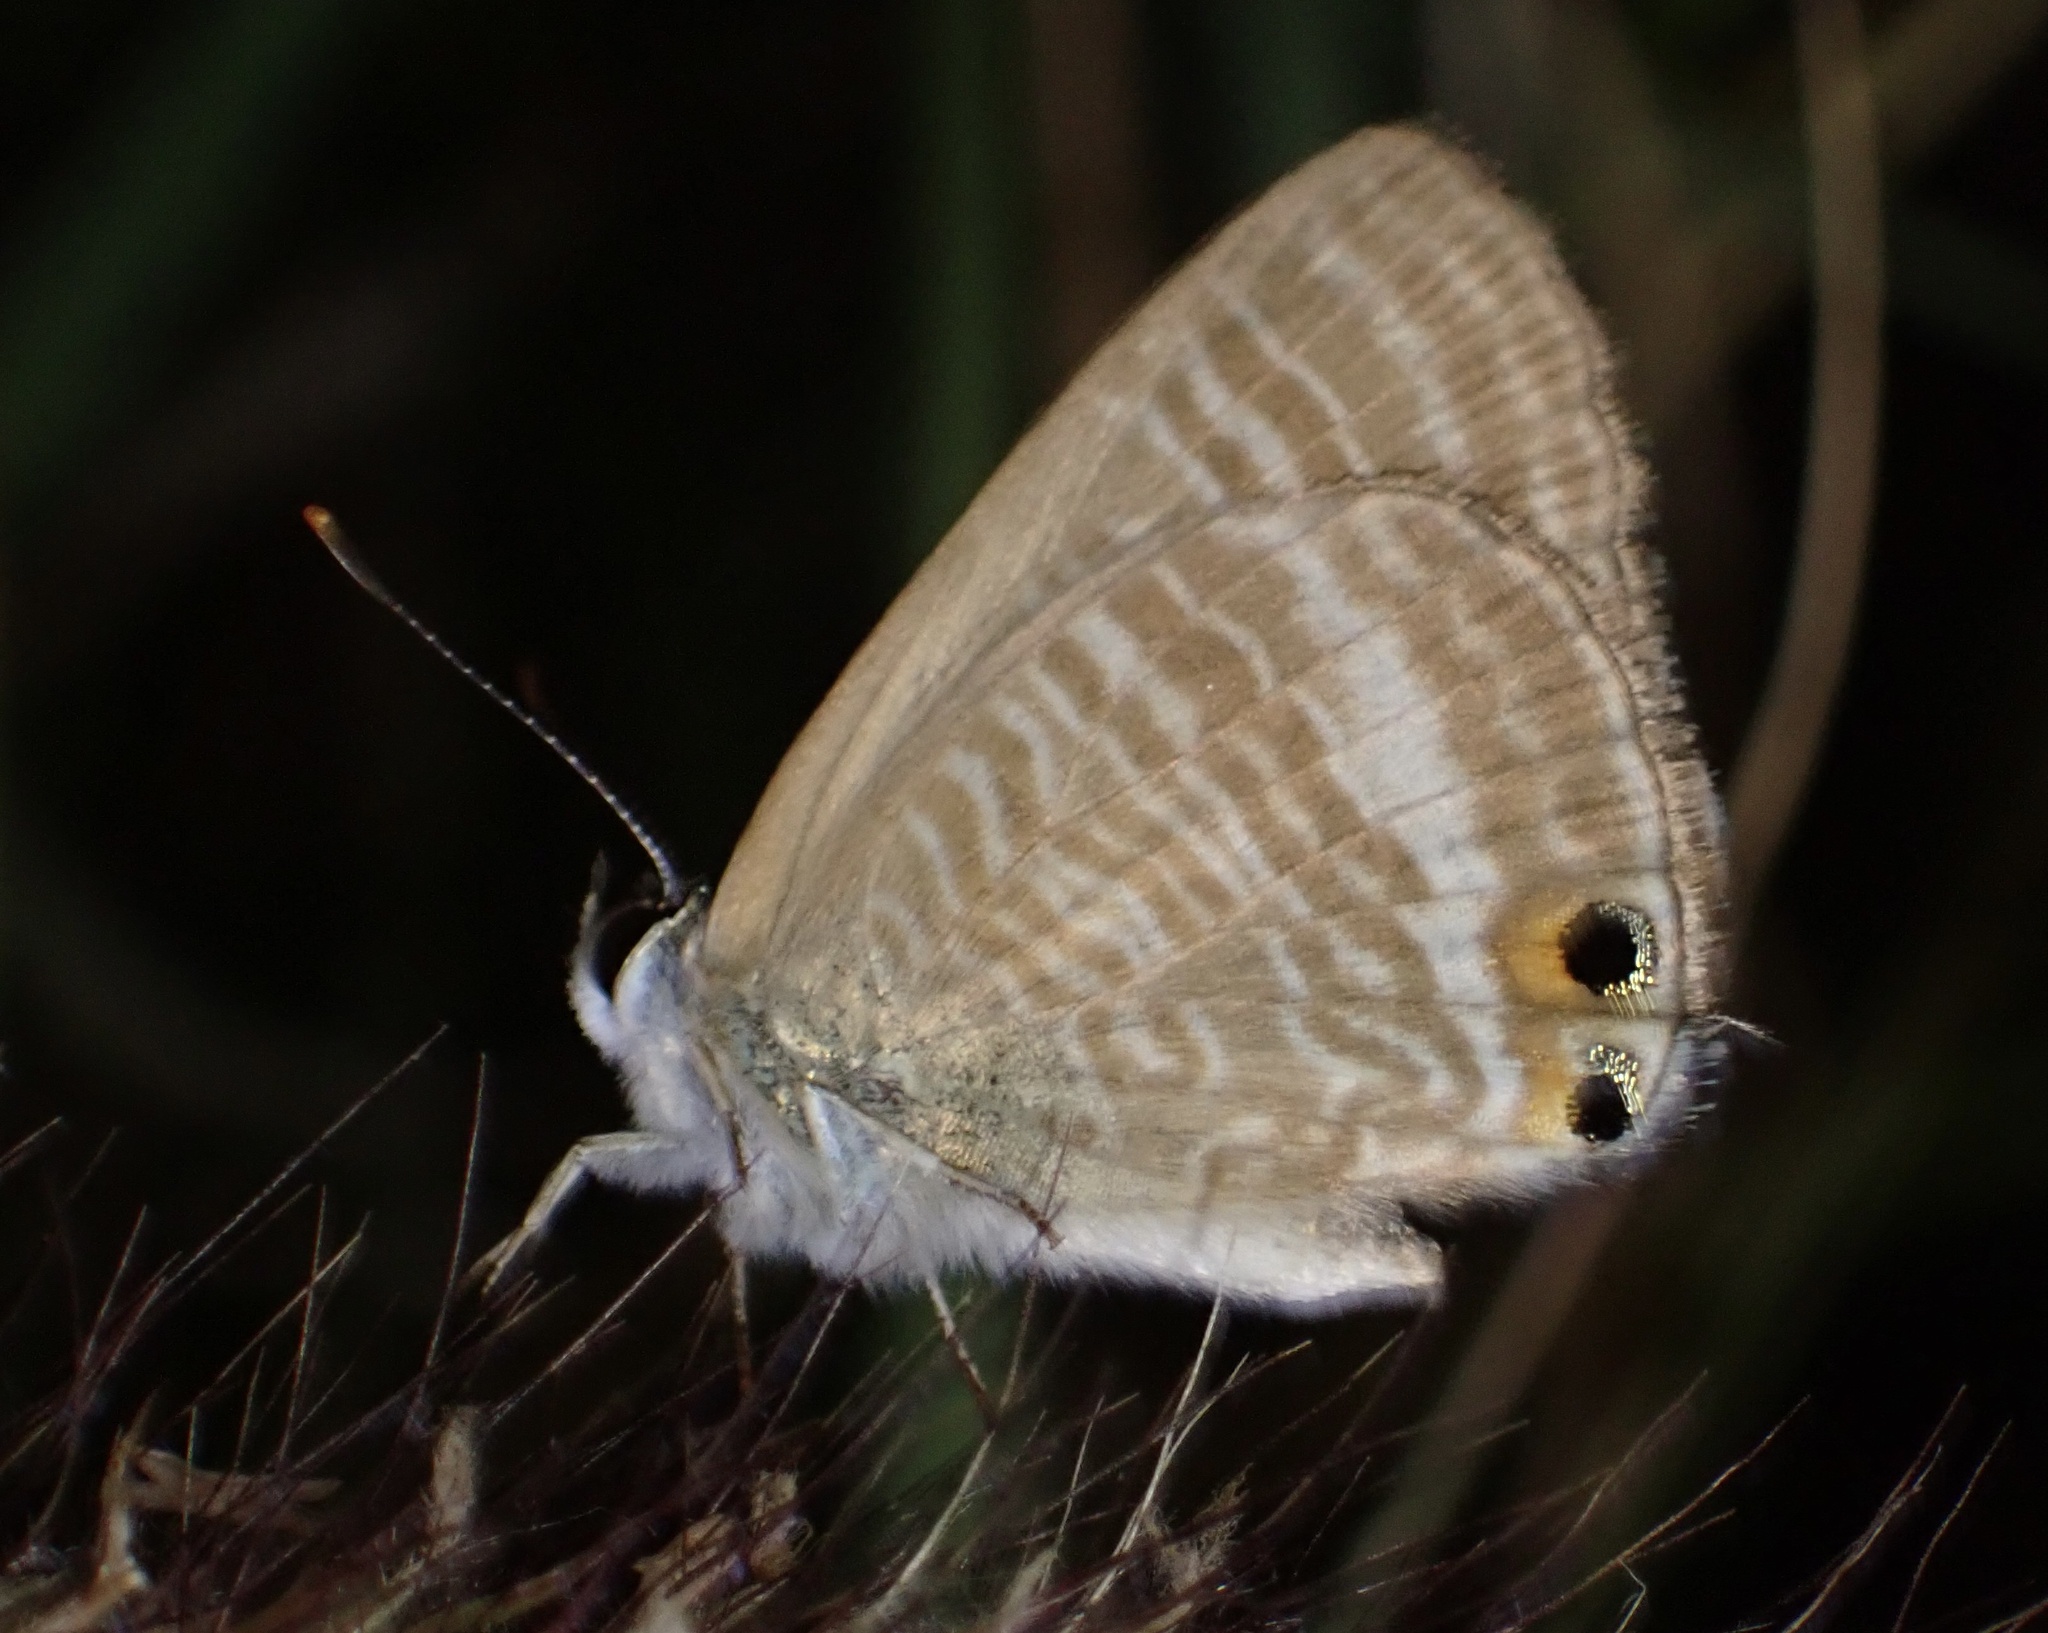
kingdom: Animalia
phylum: Arthropoda
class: Insecta
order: Lepidoptera
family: Lycaenidae
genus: Lampides
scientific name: Lampides boeticus
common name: Long-tailed blue
